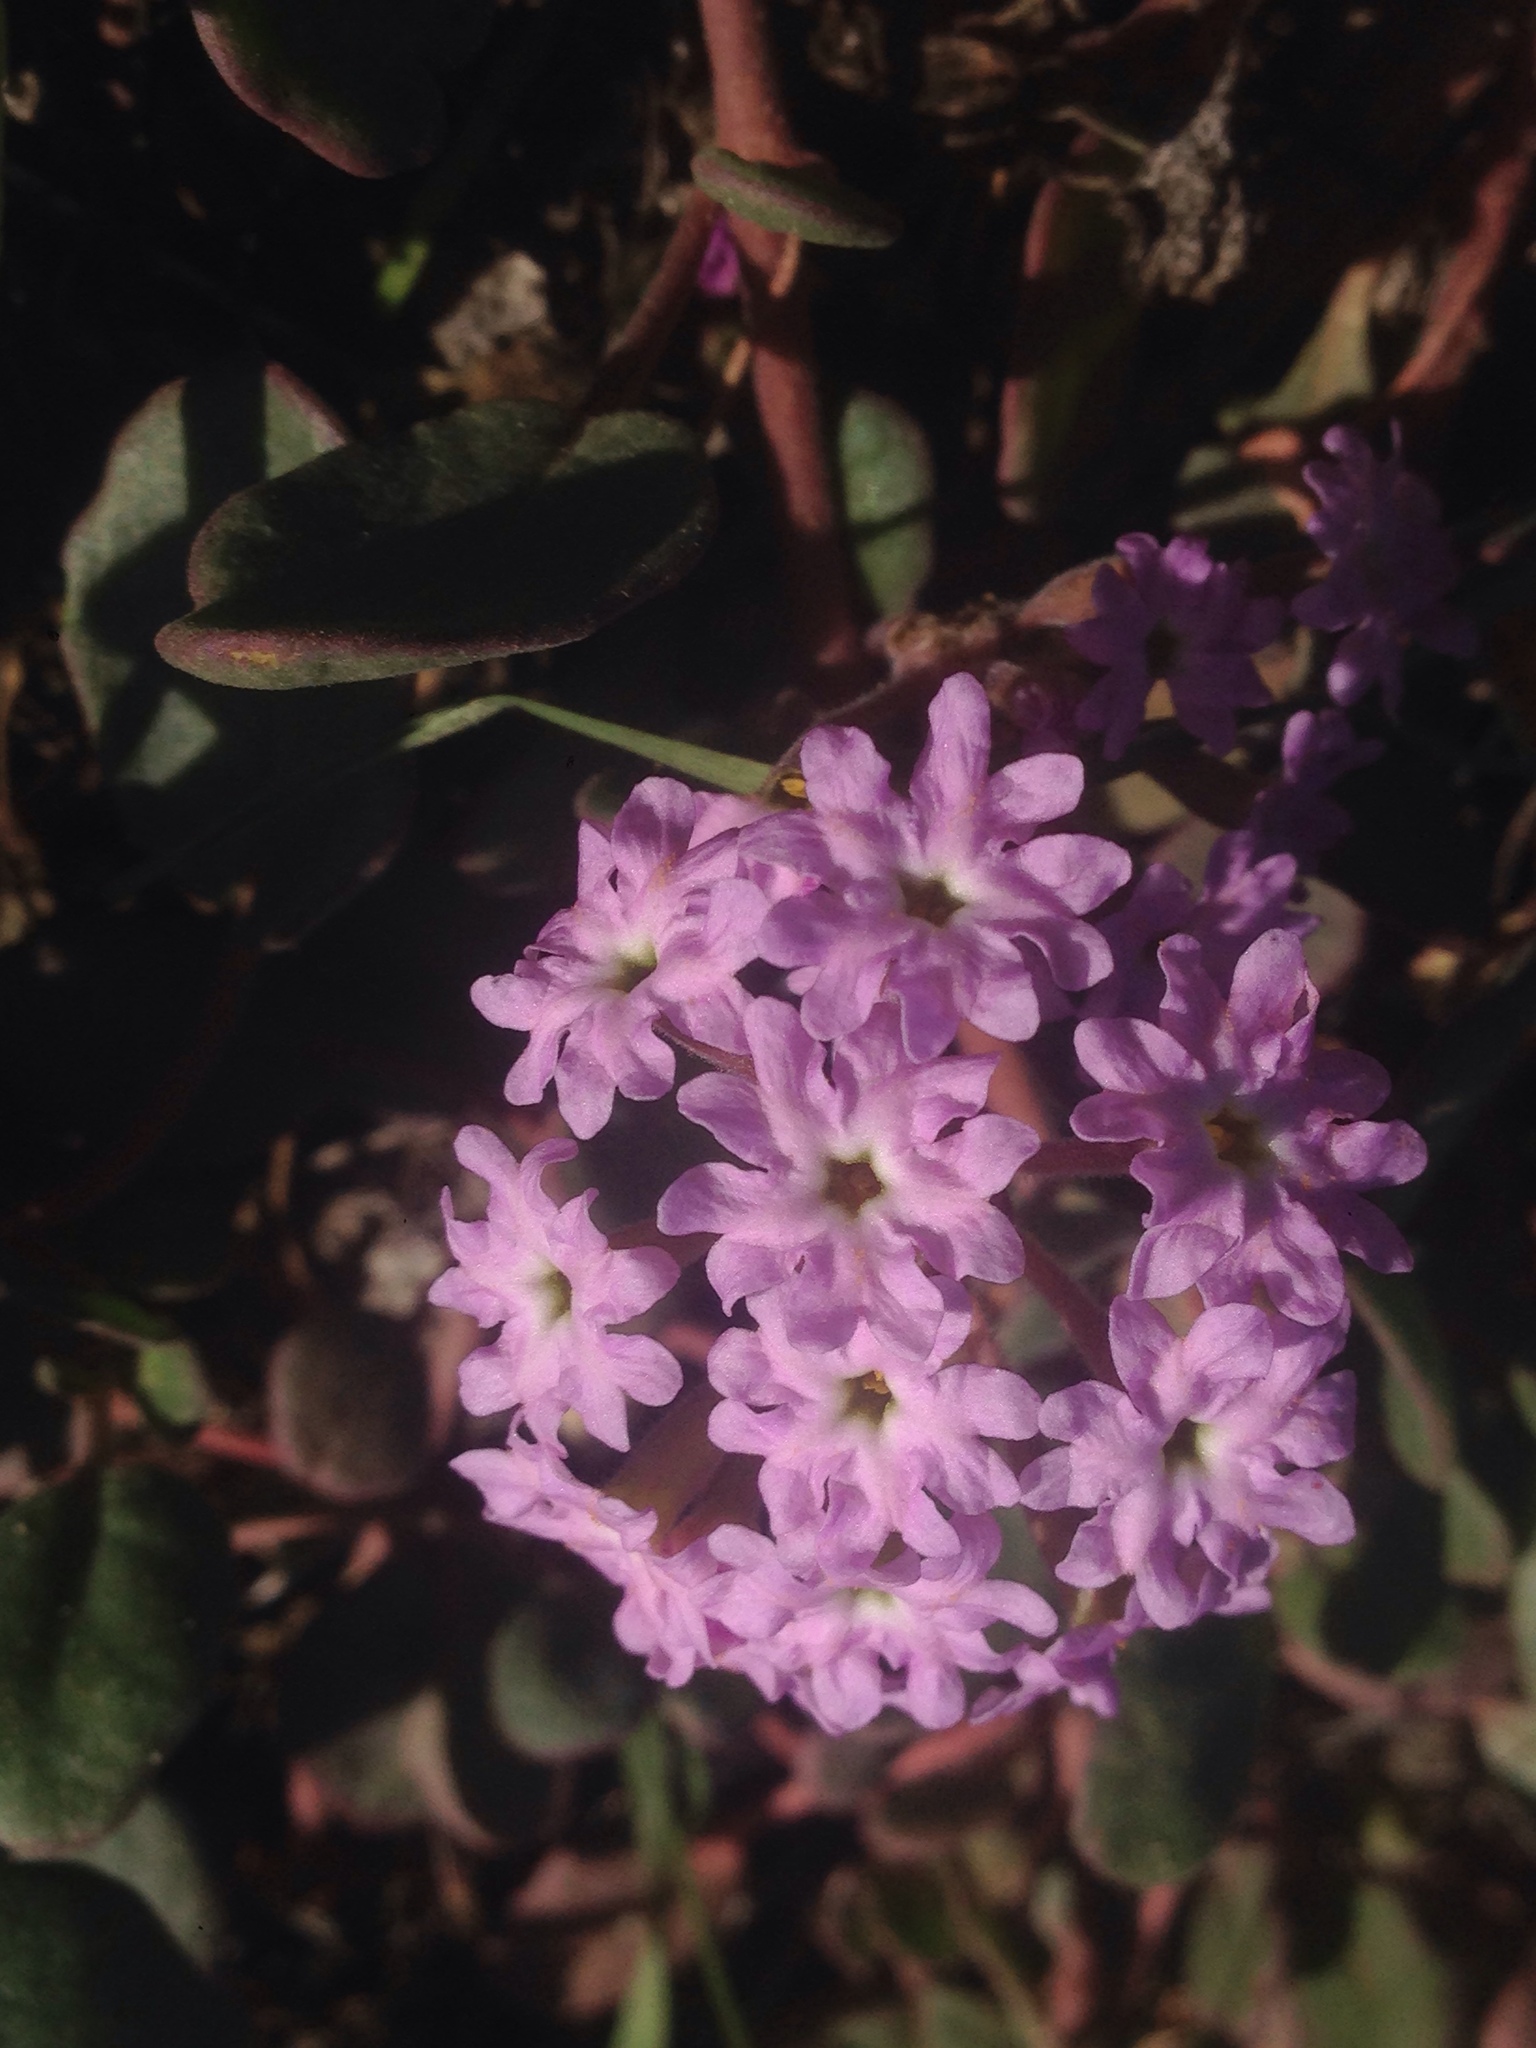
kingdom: Plantae
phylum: Tracheophyta
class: Magnoliopsida
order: Caryophyllales
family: Nyctaginaceae
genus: Abronia
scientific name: Abronia umbellata
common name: Sand-verbena
